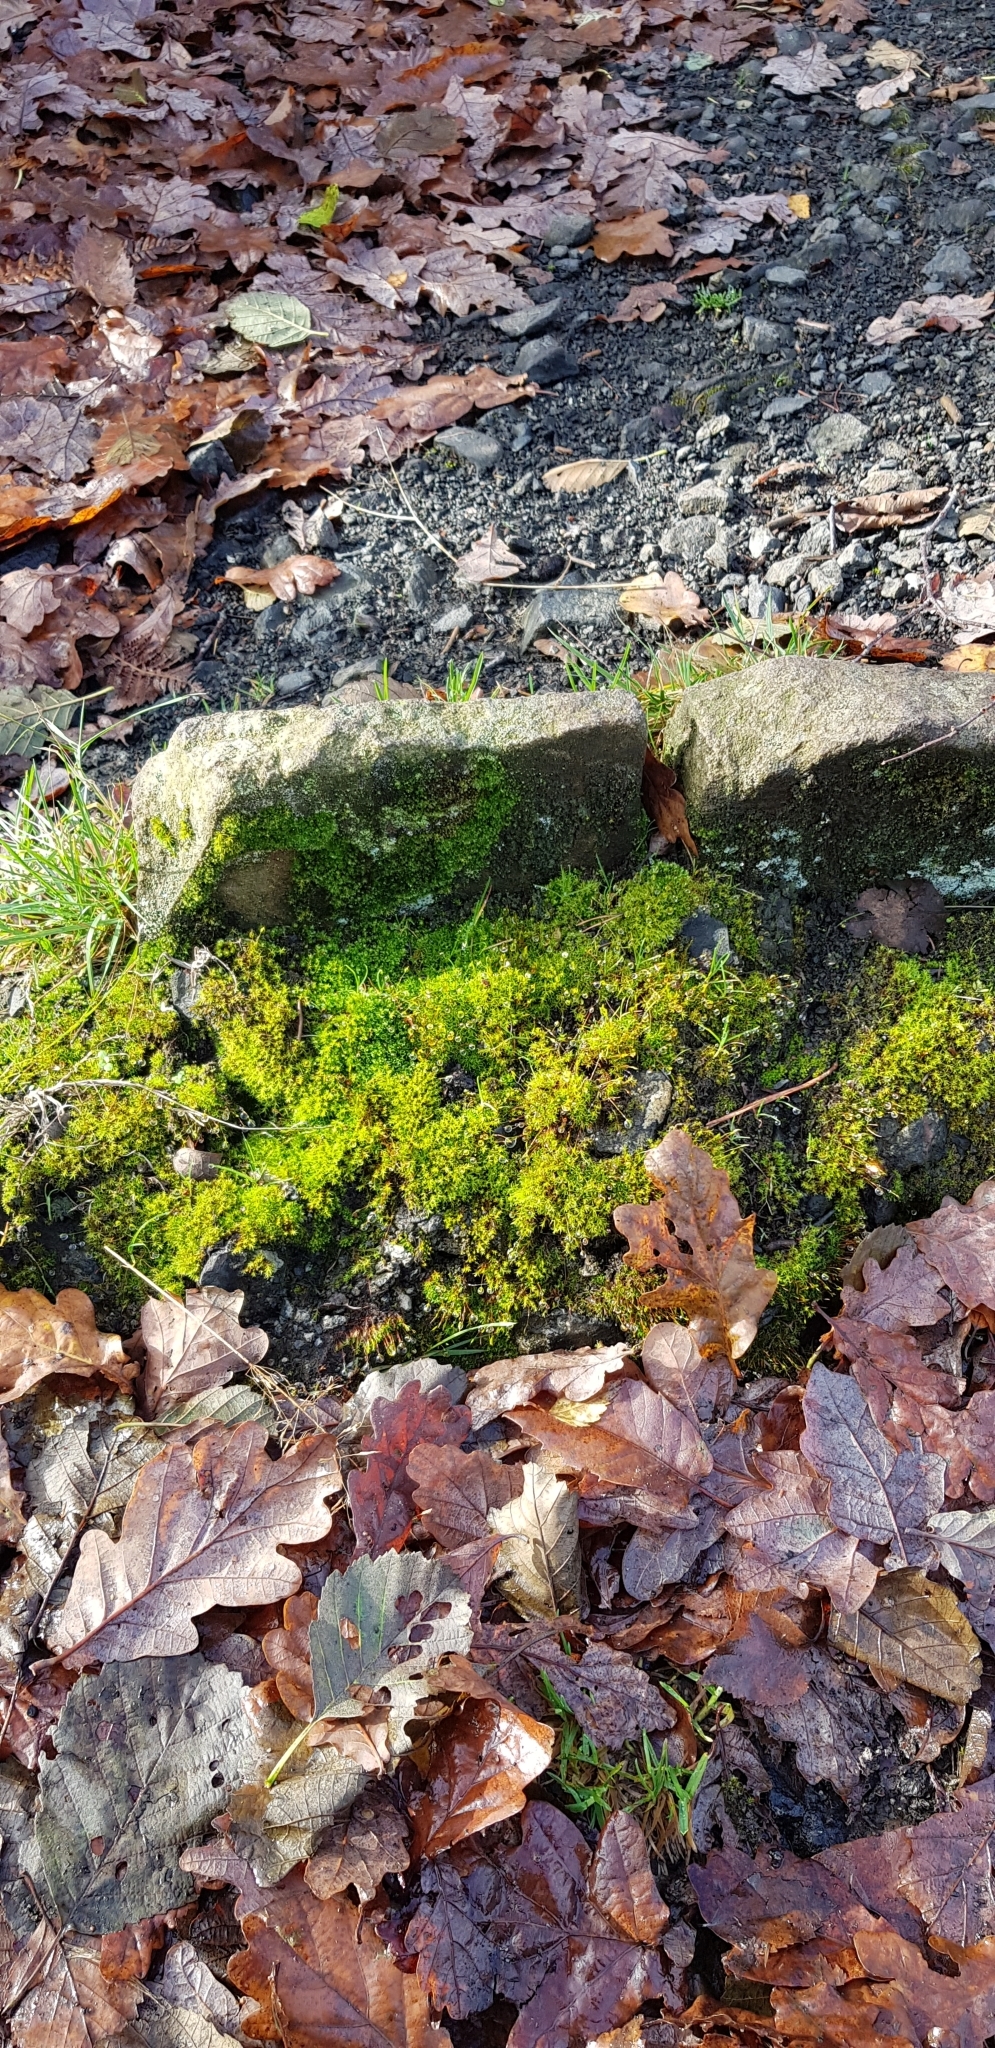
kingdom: Plantae
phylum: Bryophyta
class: Bryopsida
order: Pottiales
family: Pottiaceae
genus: Bryoerythrophyllum
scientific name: Bryoerythrophyllum recurvirostrum
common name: Red beard moss
